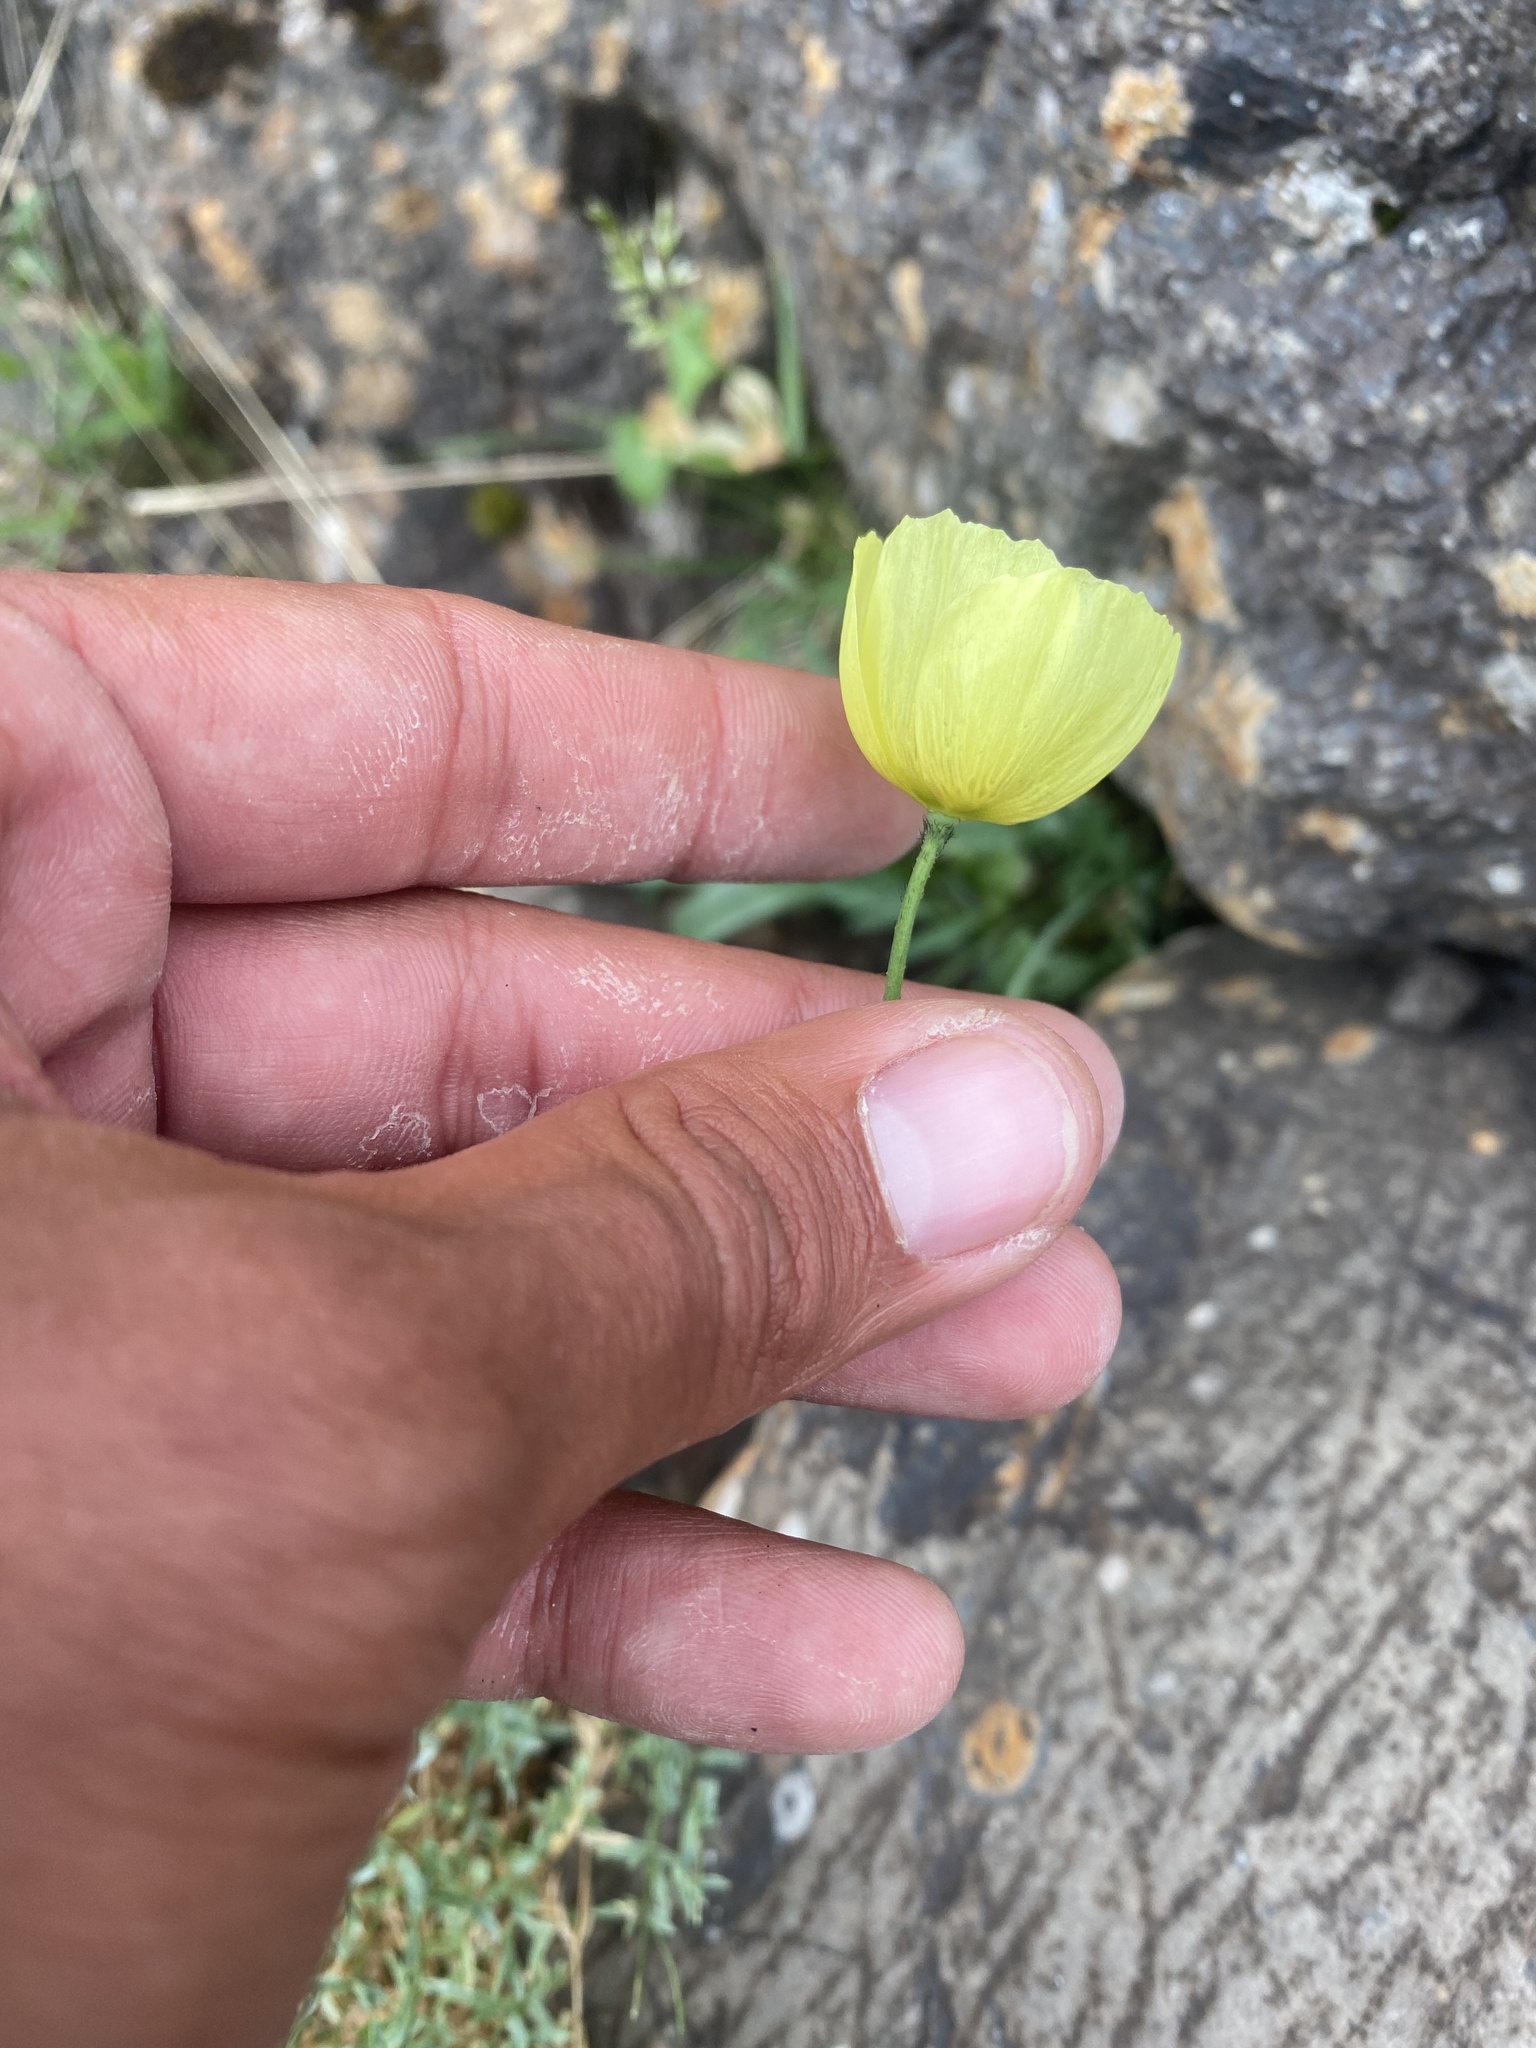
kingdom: Plantae
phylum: Tracheophyta
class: Magnoliopsida
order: Ranunculales
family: Papaveraceae
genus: Papaver
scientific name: Papaver angustifolium
